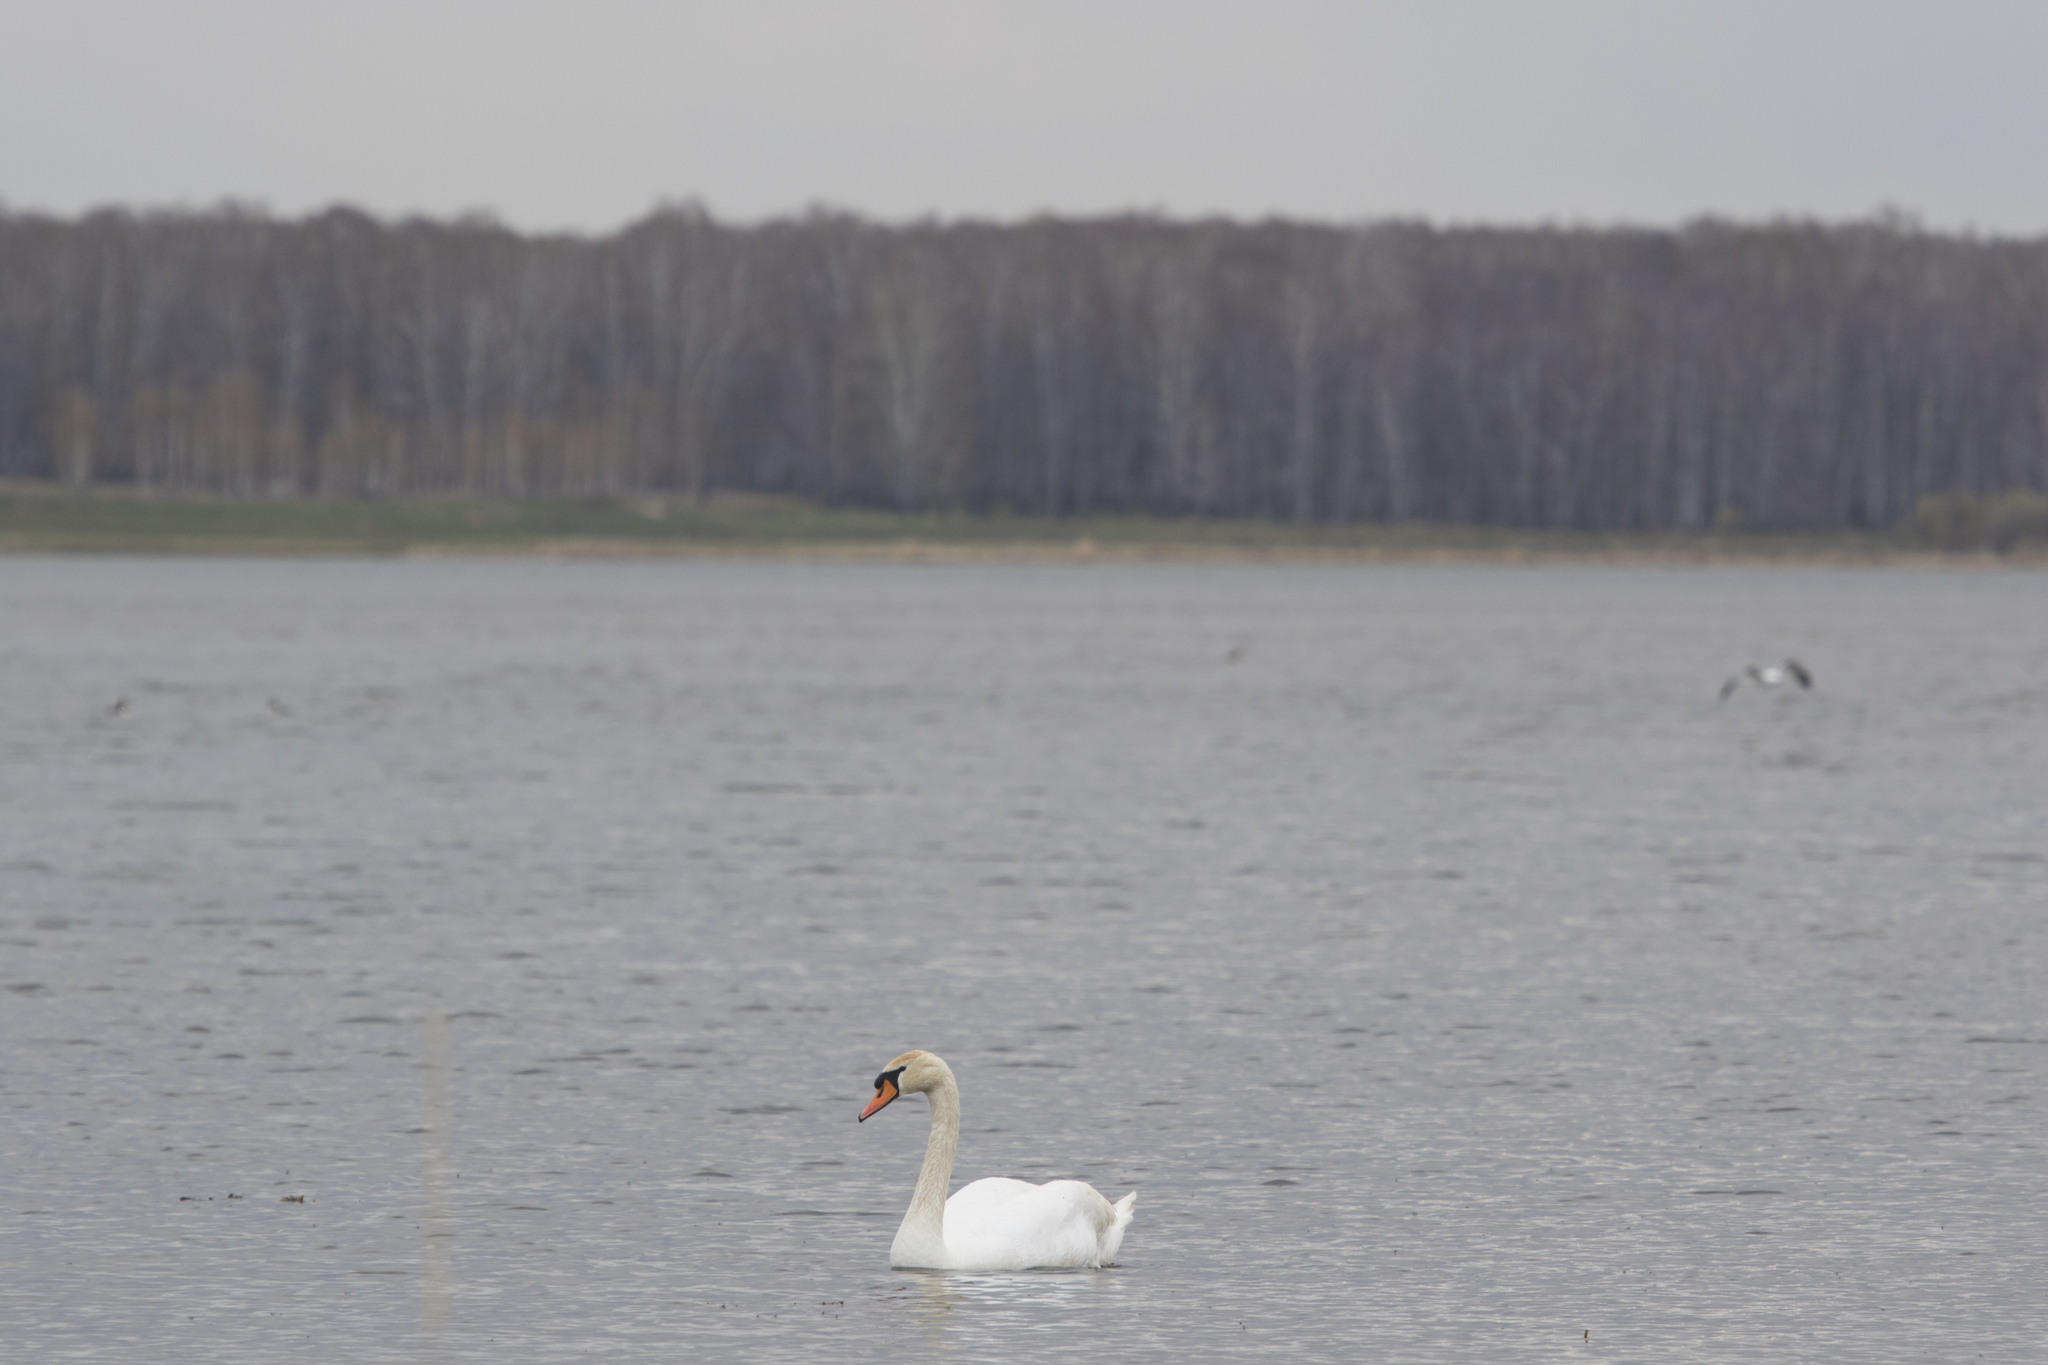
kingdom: Animalia
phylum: Chordata
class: Aves
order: Anseriformes
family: Anatidae
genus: Cygnus
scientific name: Cygnus olor
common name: Mute swan
